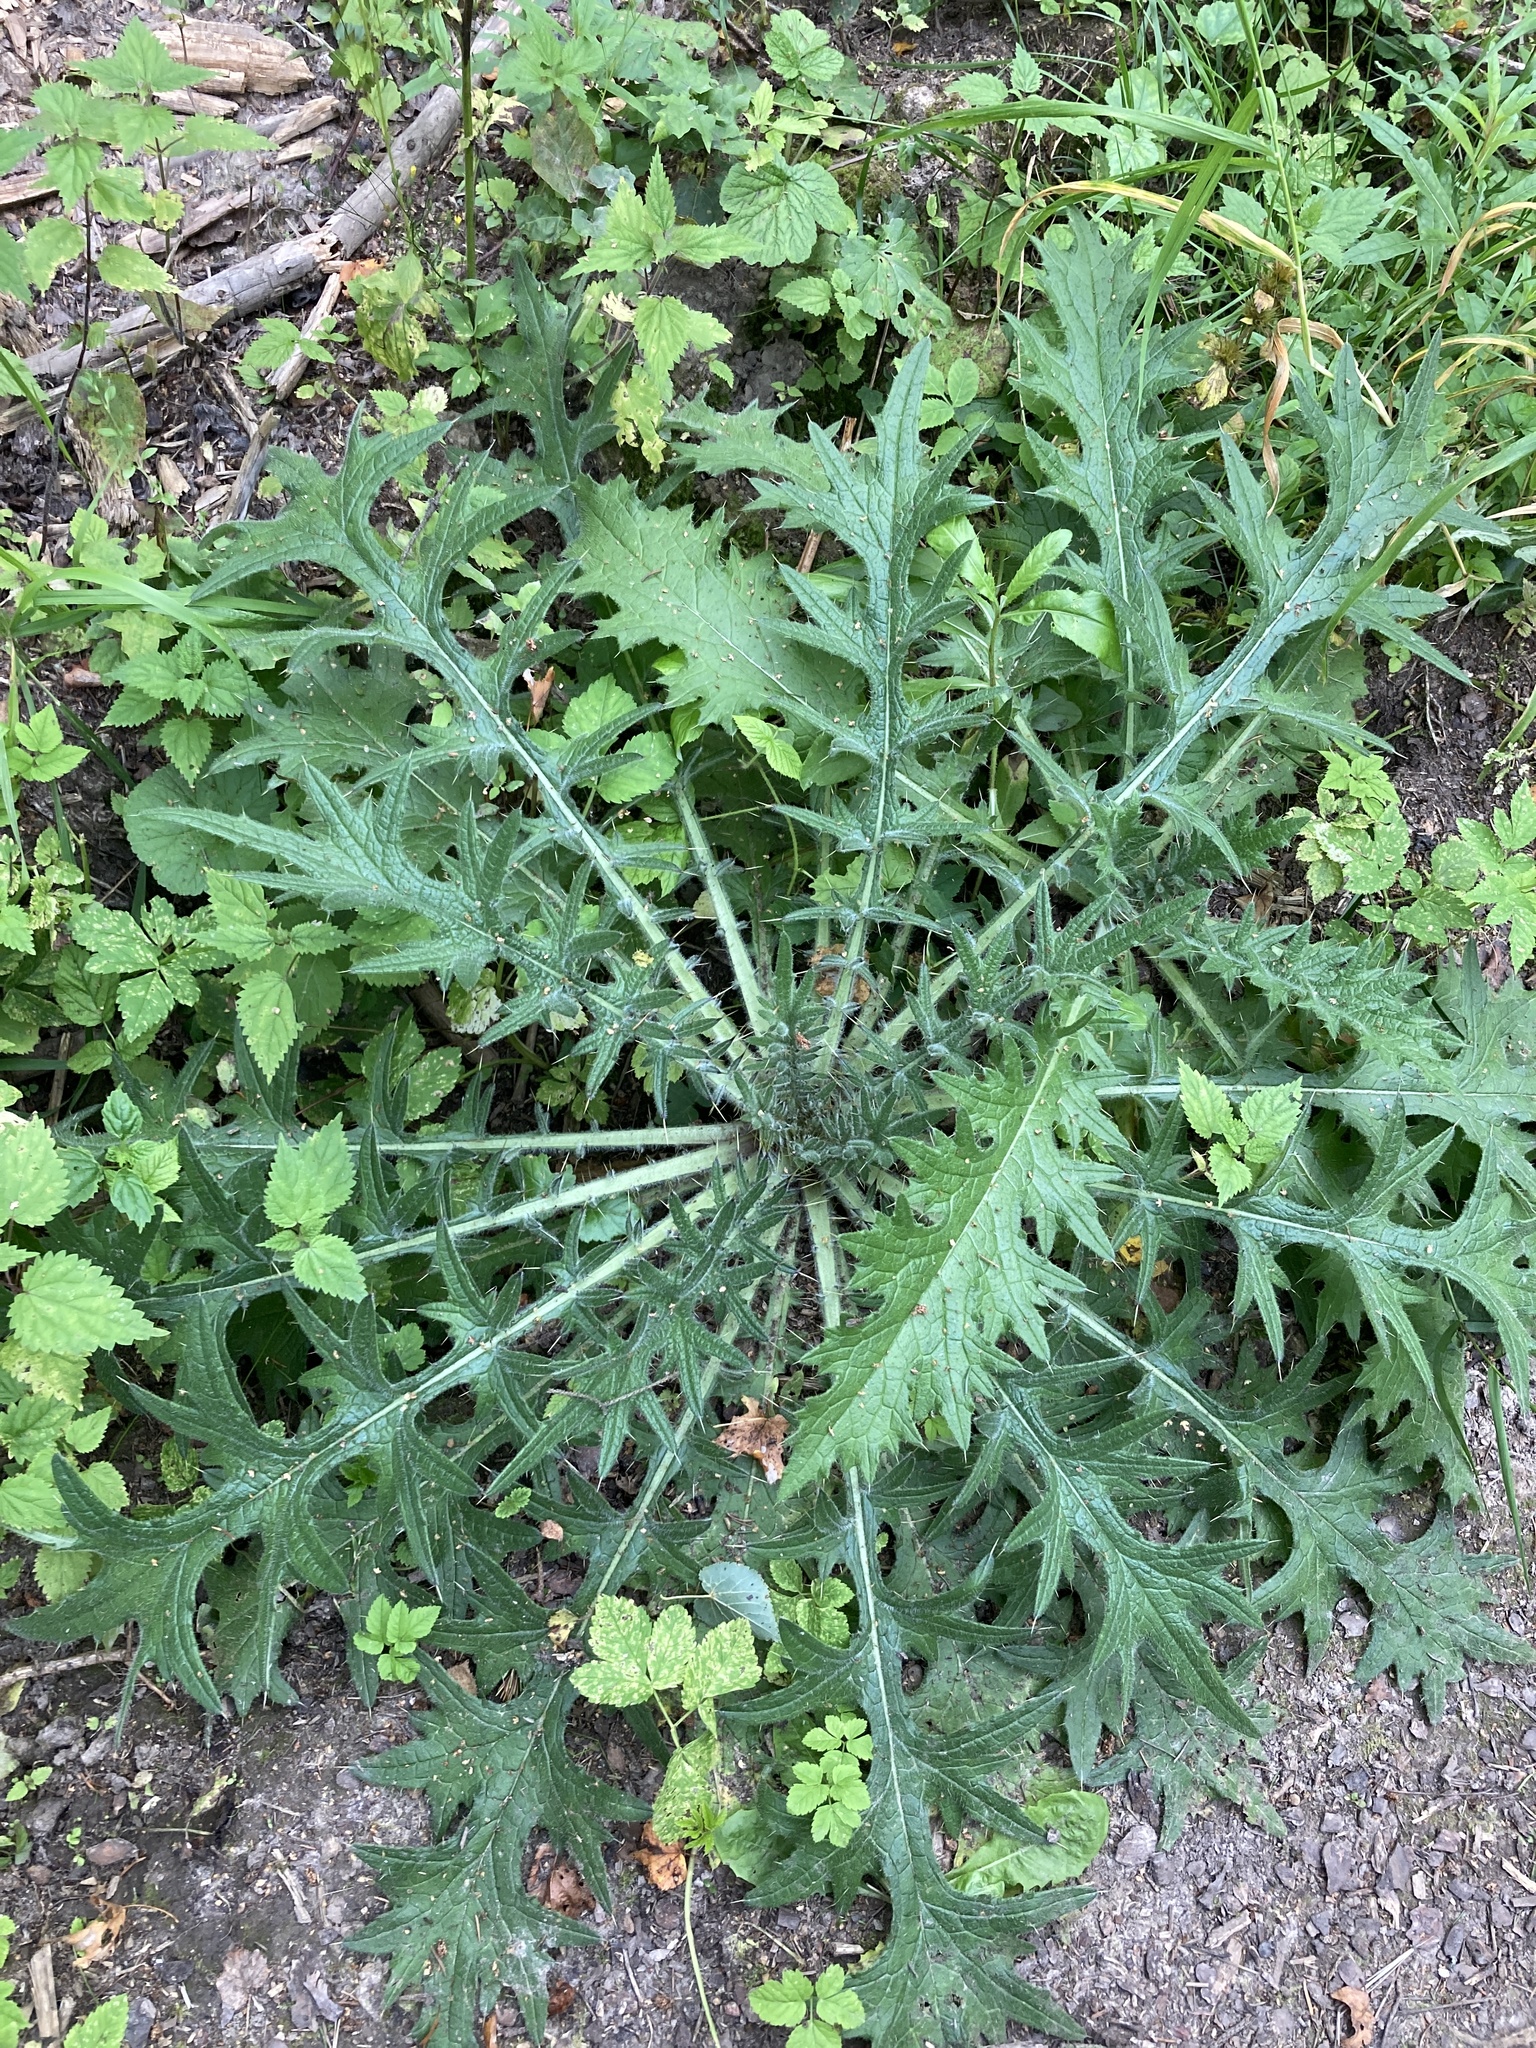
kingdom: Plantae
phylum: Tracheophyta
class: Magnoliopsida
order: Asterales
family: Asteraceae
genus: Cirsium
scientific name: Cirsium vulgare
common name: Bull thistle
